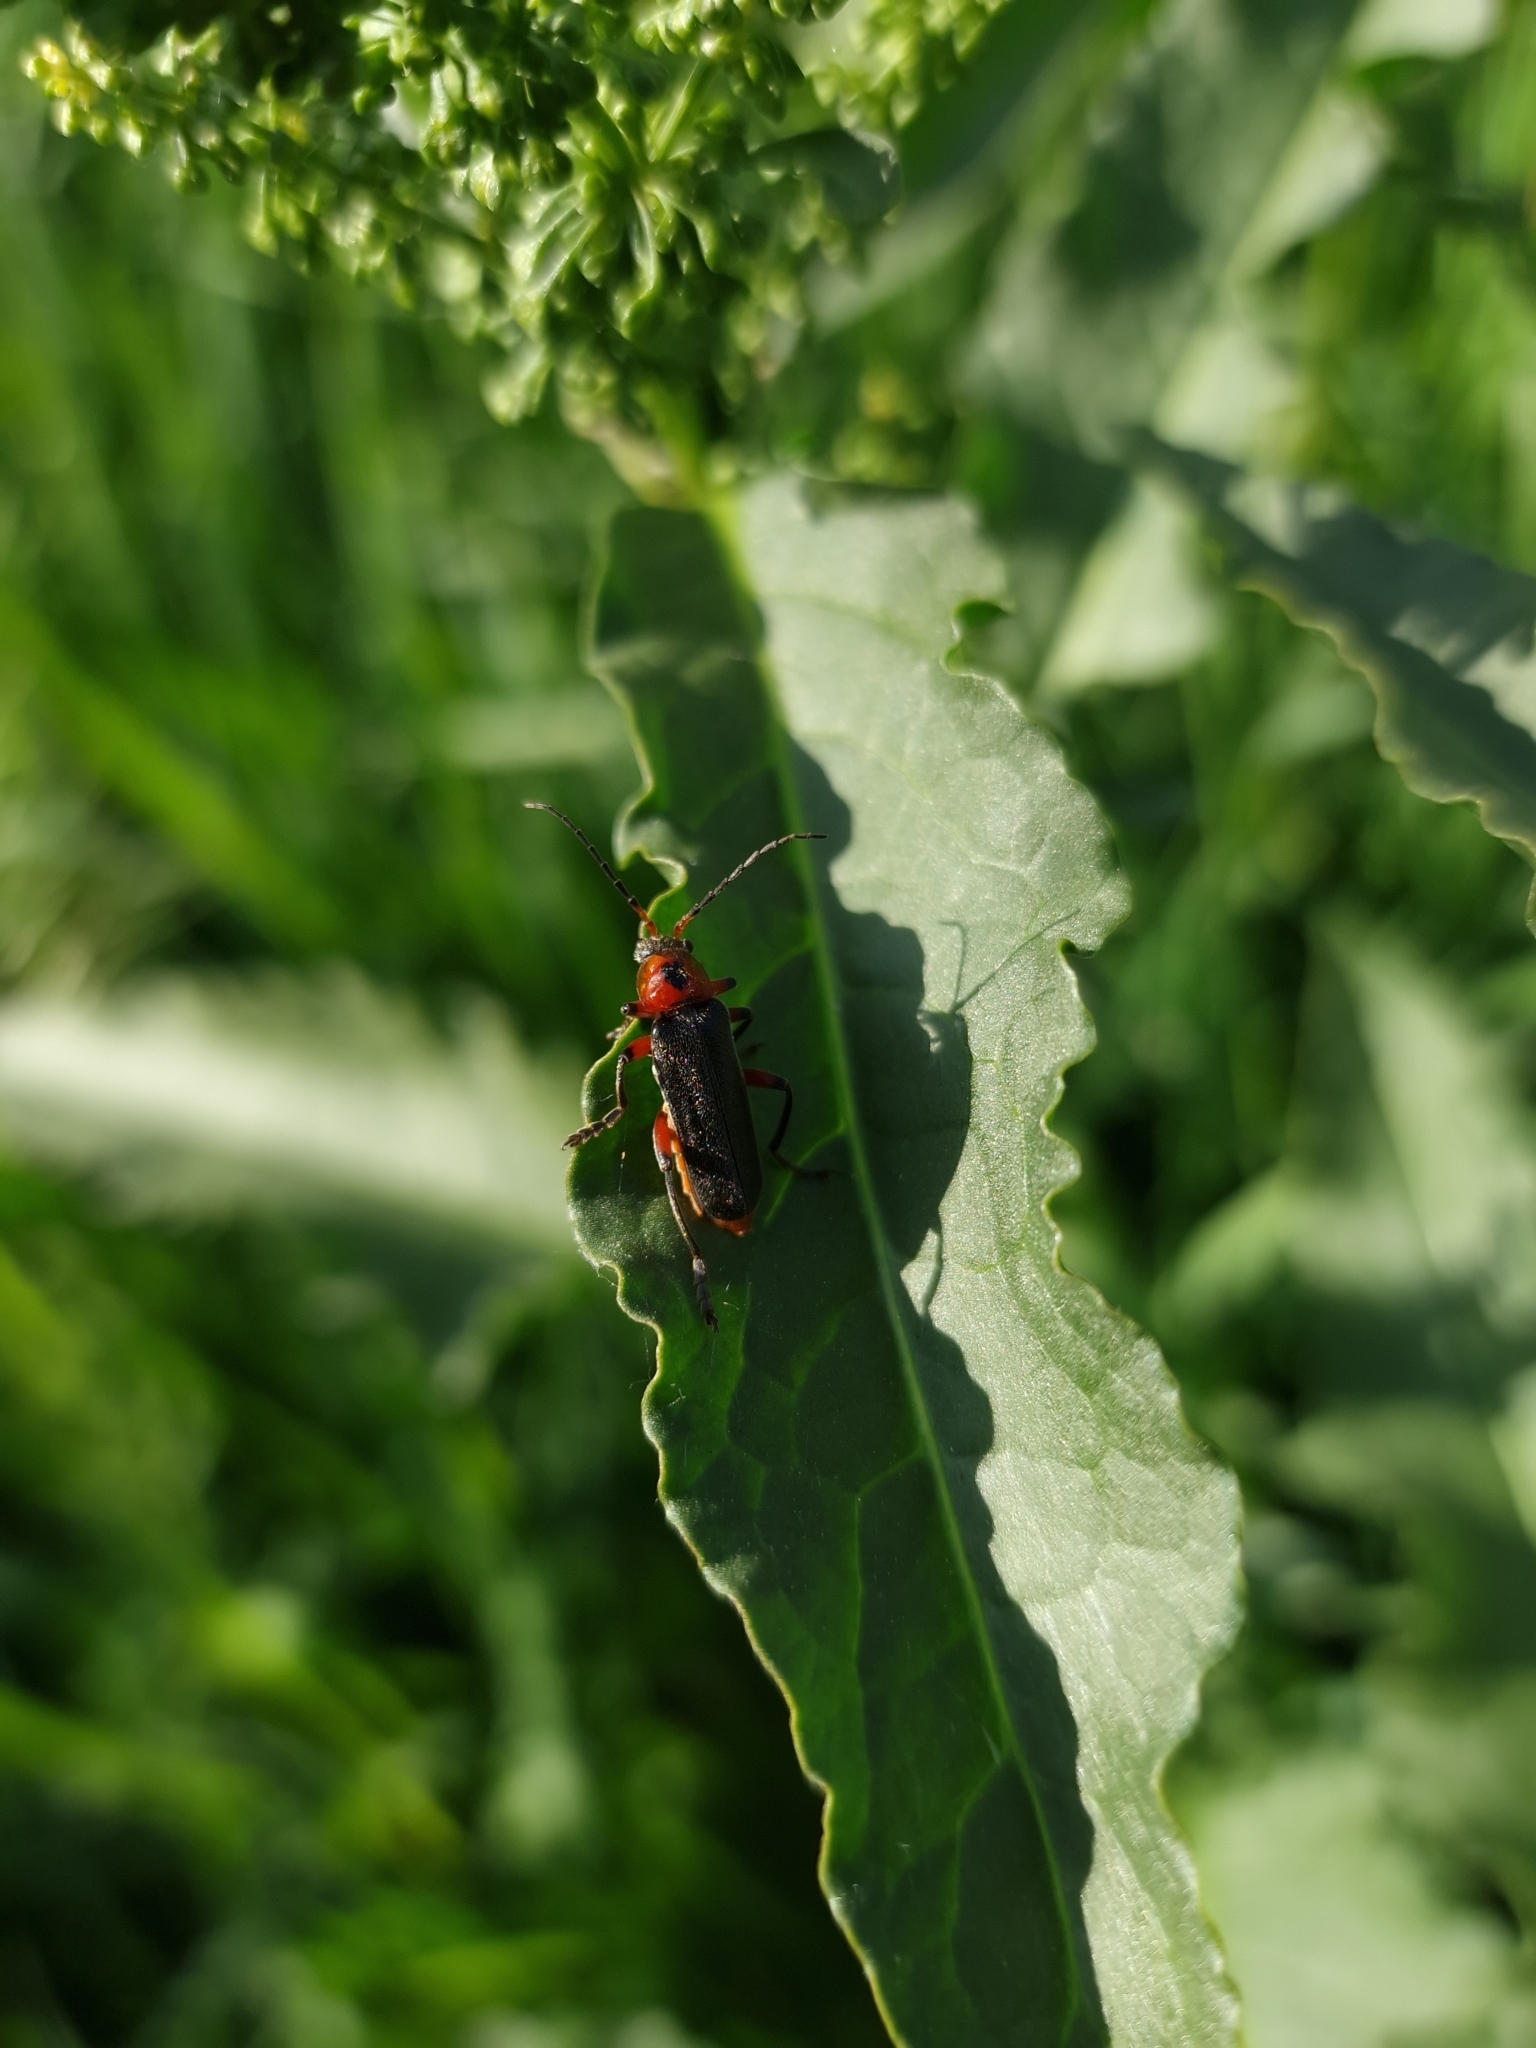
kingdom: Animalia
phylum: Arthropoda
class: Insecta
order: Coleoptera
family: Cantharidae
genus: Cantharis
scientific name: Cantharis rustica
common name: Soldier beetle
